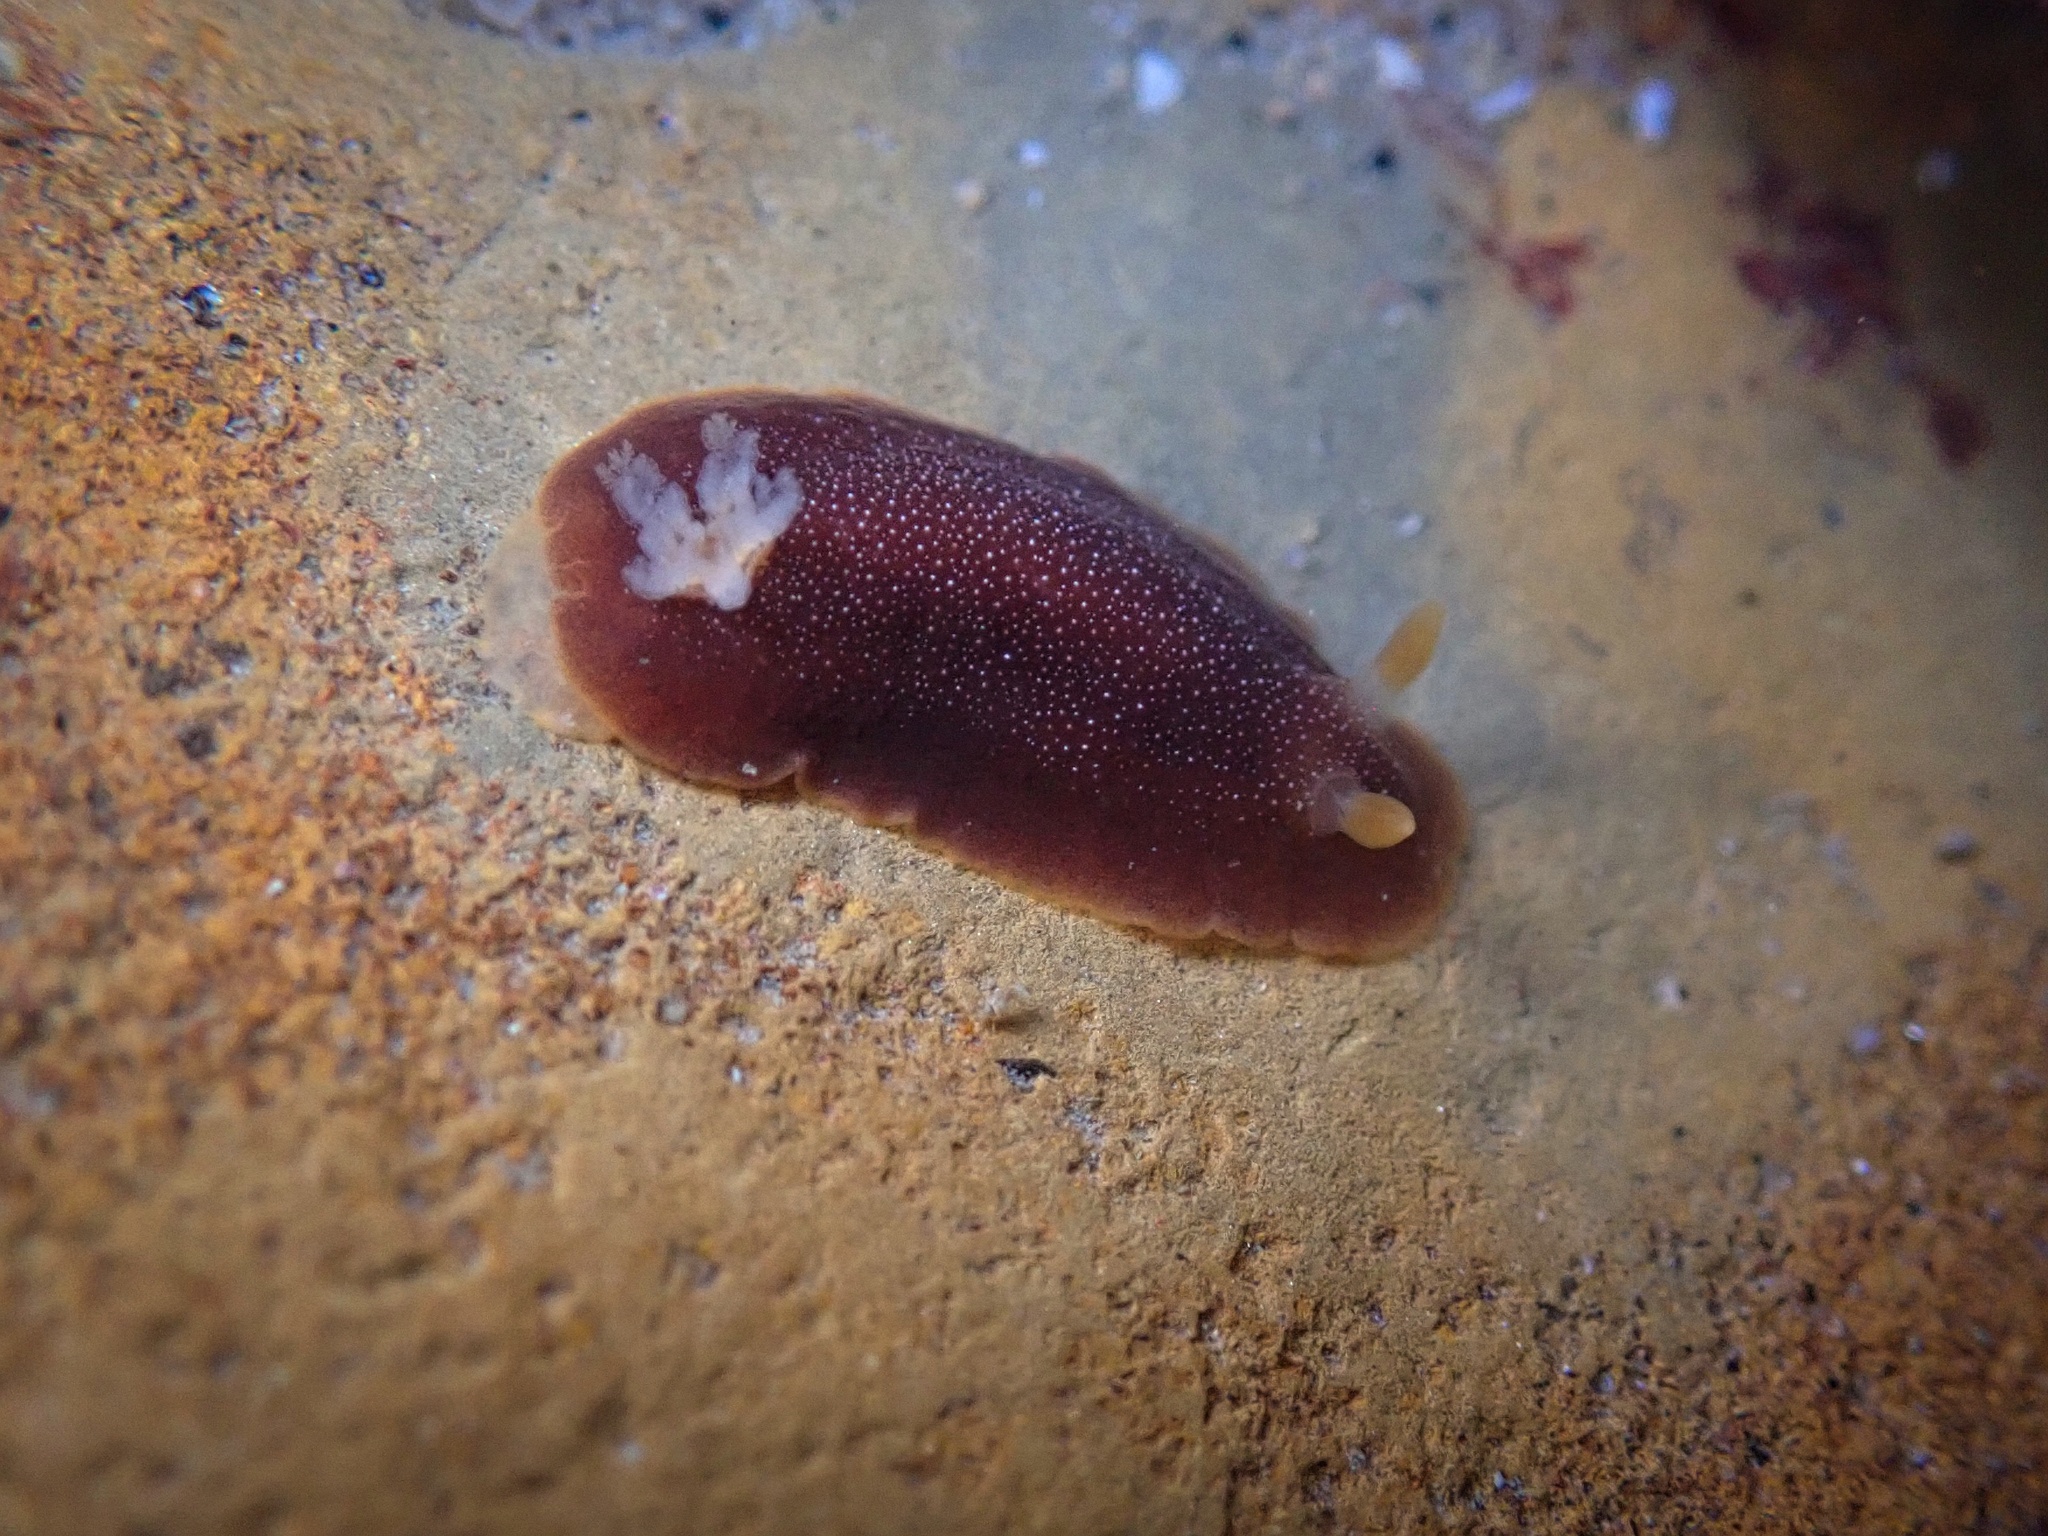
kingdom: Animalia
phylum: Mollusca
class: Gastropoda
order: Nudibranchia
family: Dendrodorididae
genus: Doriopsilla
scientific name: Doriopsilla albopunctata
